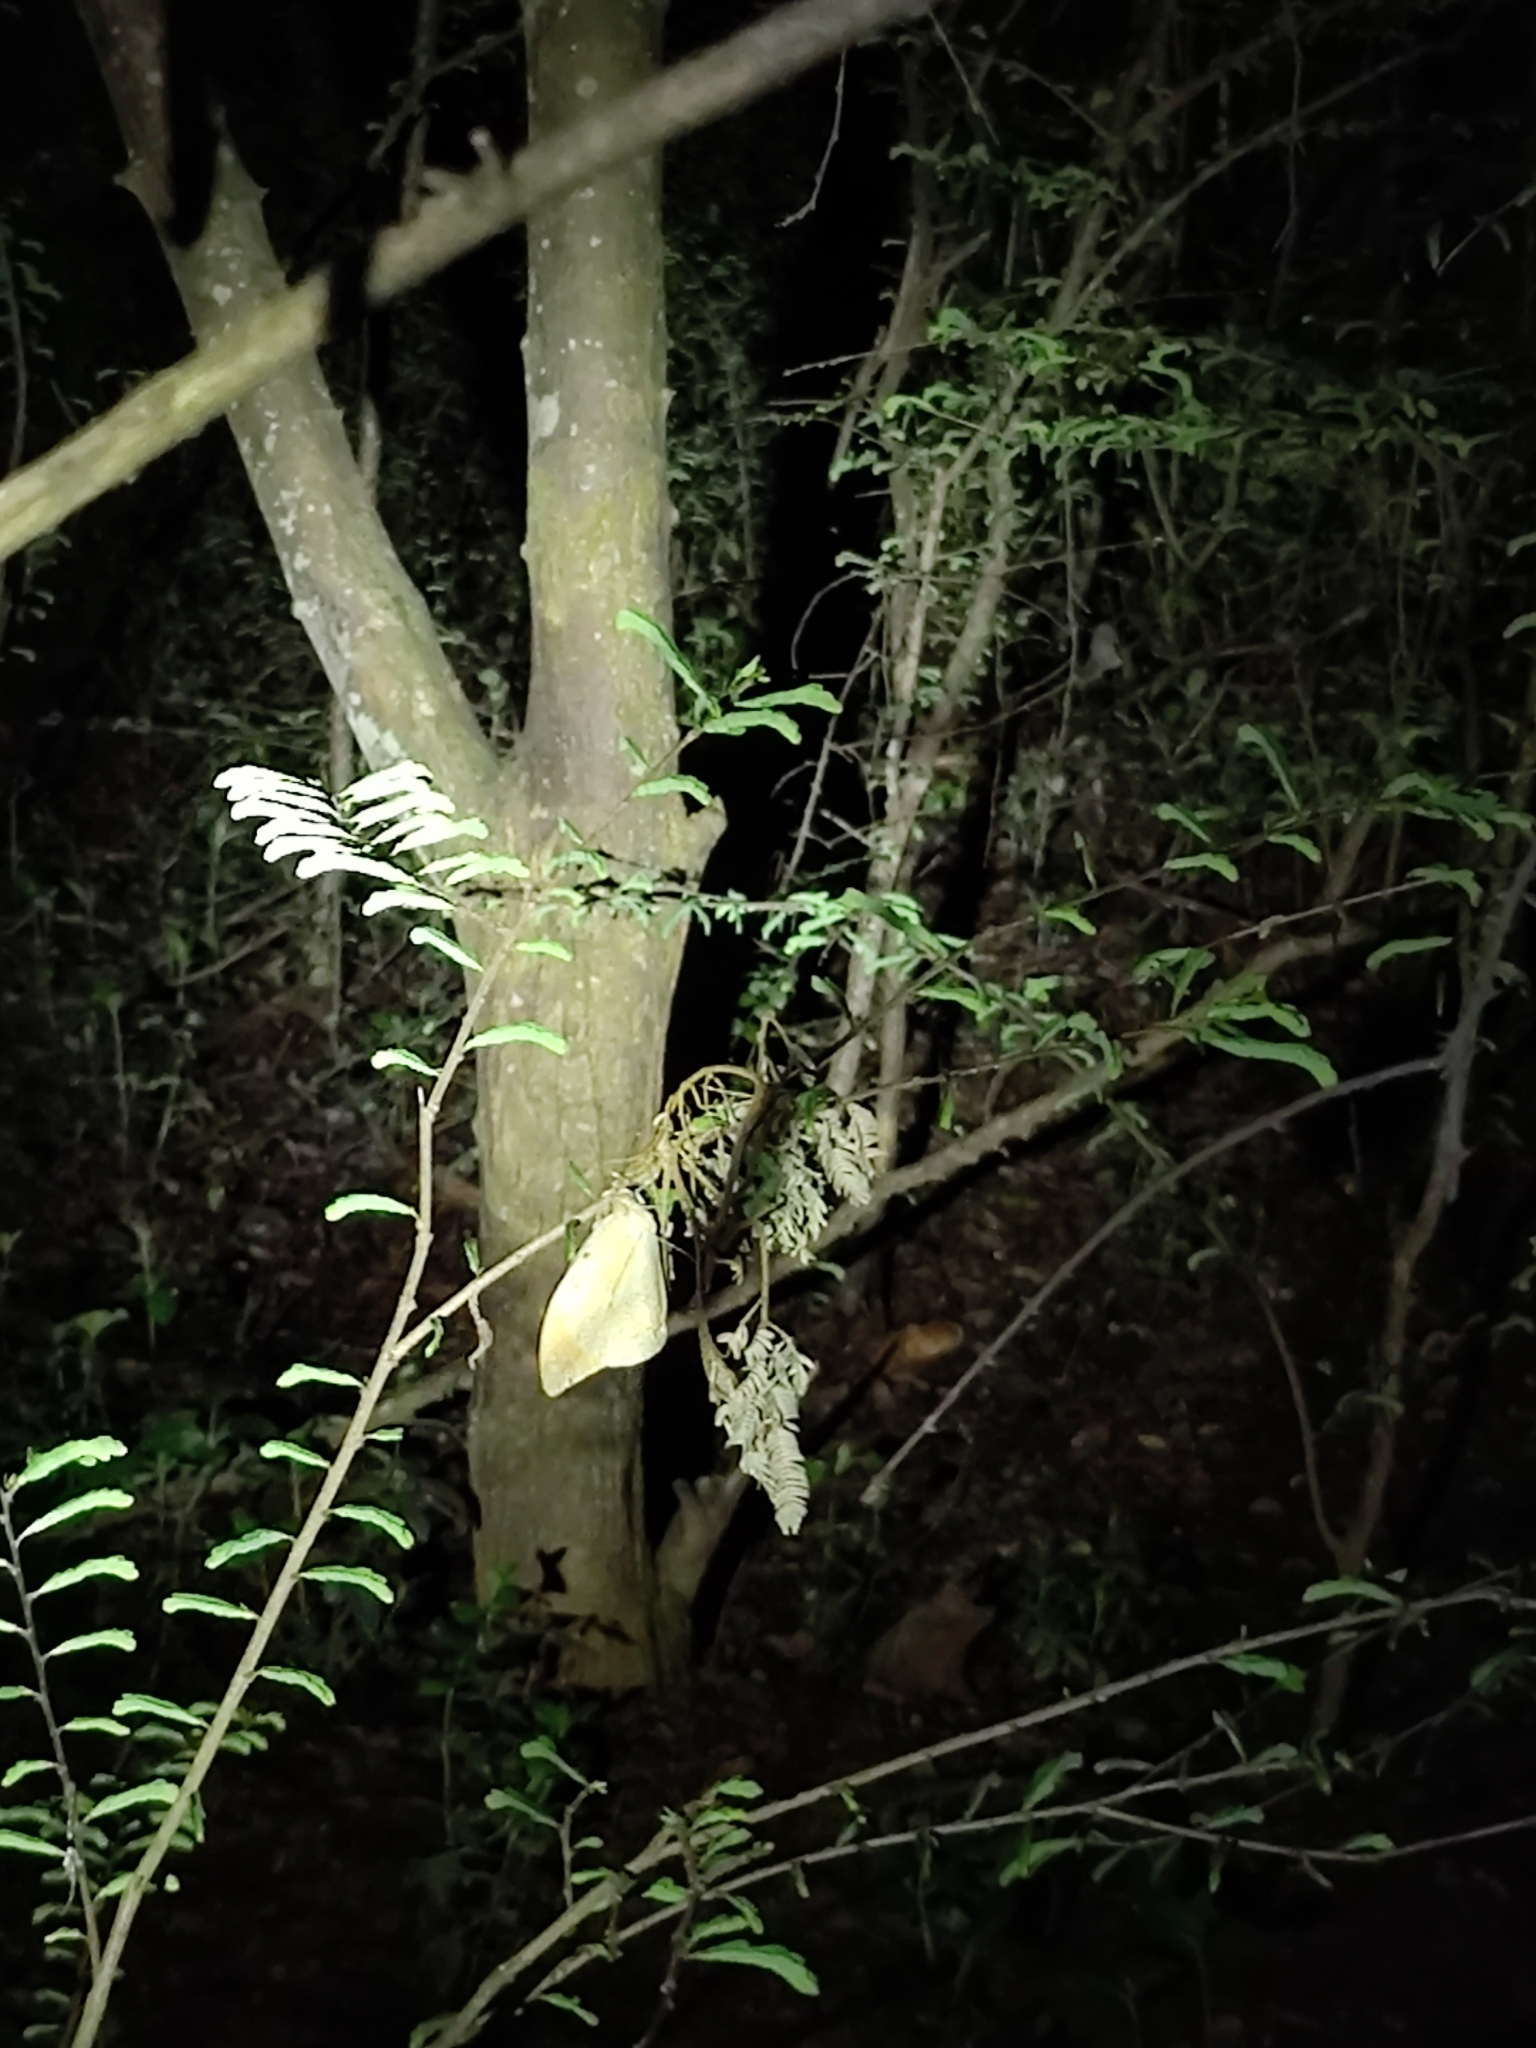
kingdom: Animalia
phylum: Arthropoda
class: Insecta
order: Lepidoptera
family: Pieridae
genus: Hebomoia
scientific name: Hebomoia glaucippe
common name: Great orange tip
